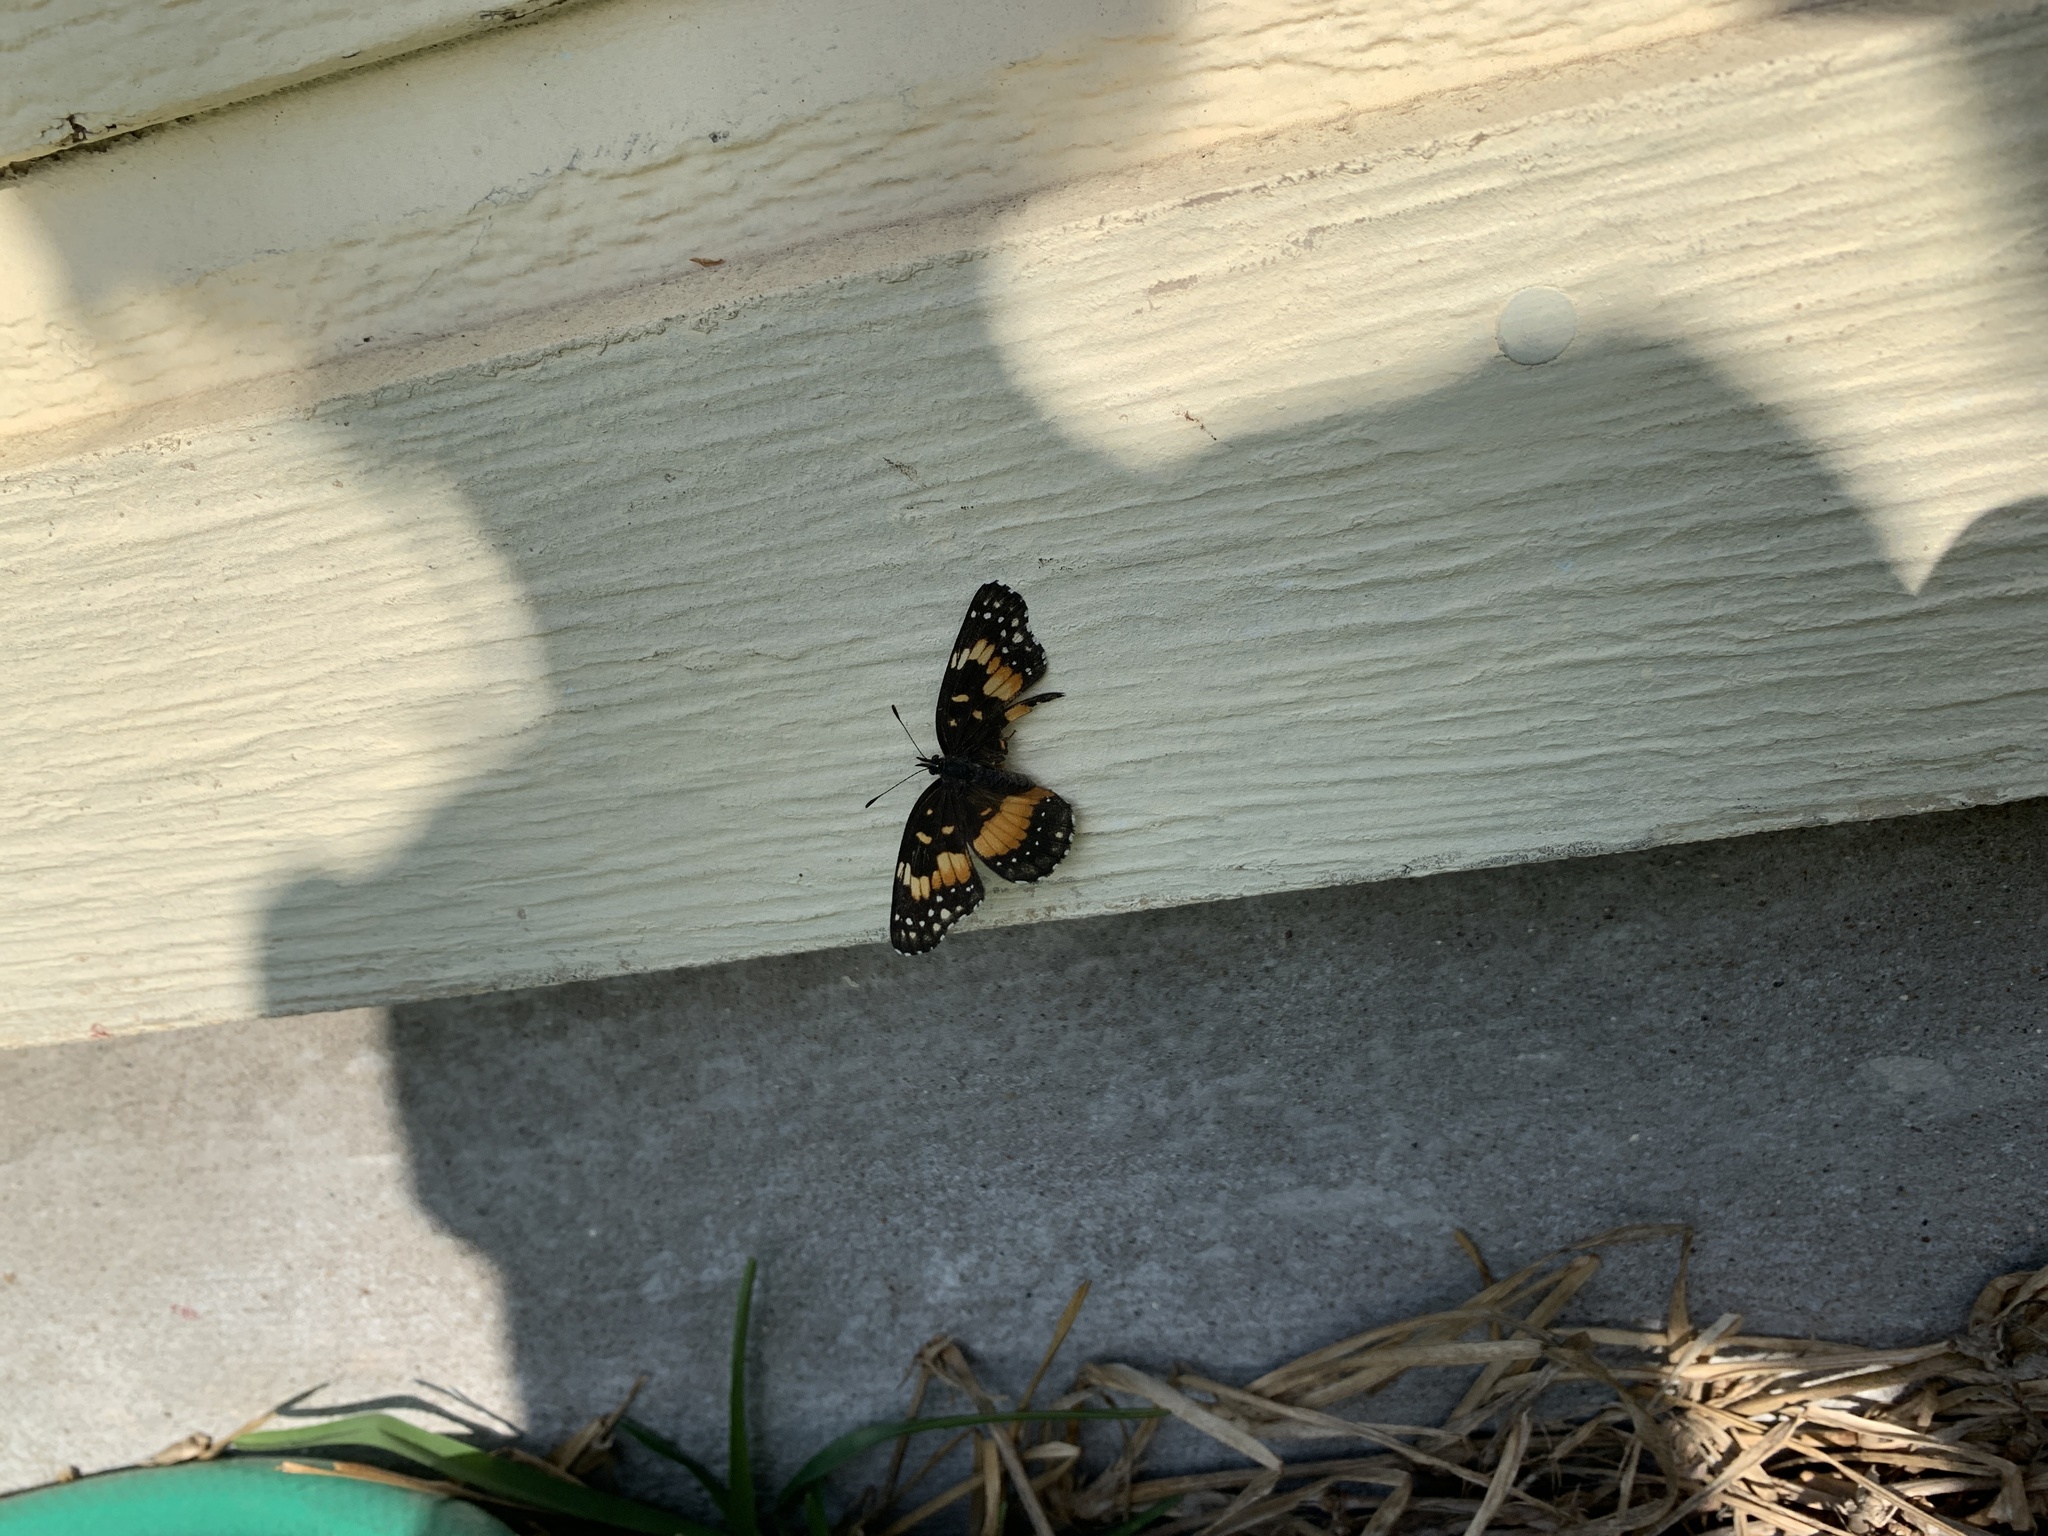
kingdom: Animalia
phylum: Arthropoda
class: Insecta
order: Lepidoptera
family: Nymphalidae
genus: Chlosyne
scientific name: Chlosyne lacinia
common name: Bordered patch
